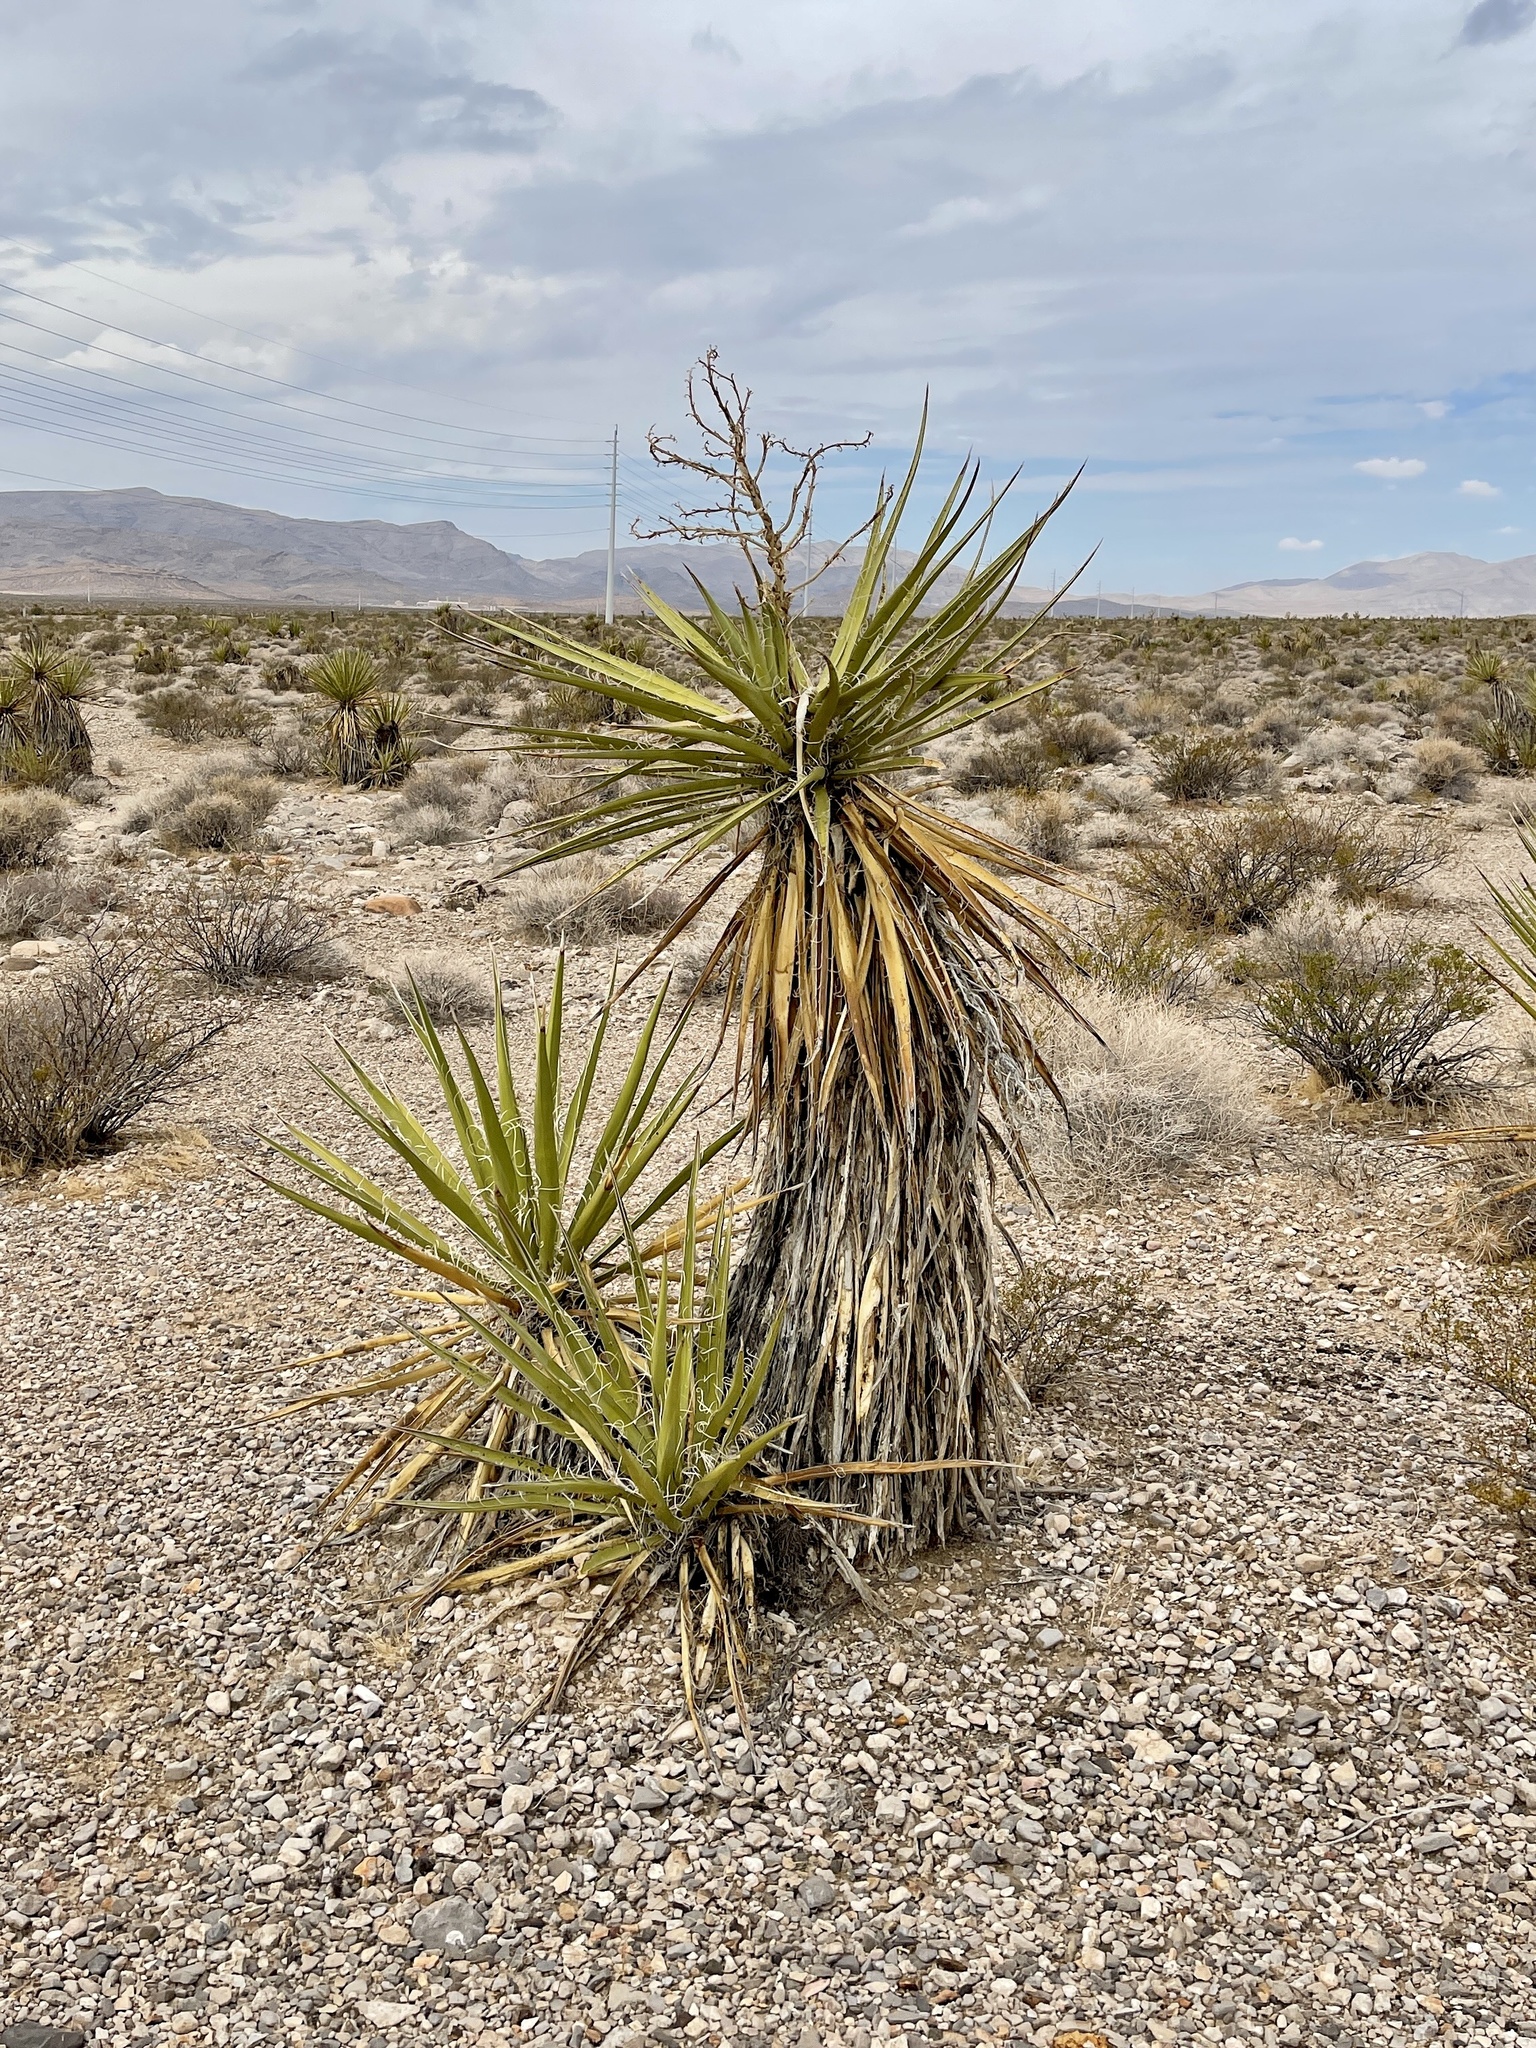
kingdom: Plantae
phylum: Tracheophyta
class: Liliopsida
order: Asparagales
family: Asparagaceae
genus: Yucca
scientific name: Yucca schidigera
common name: Mojave yucca
